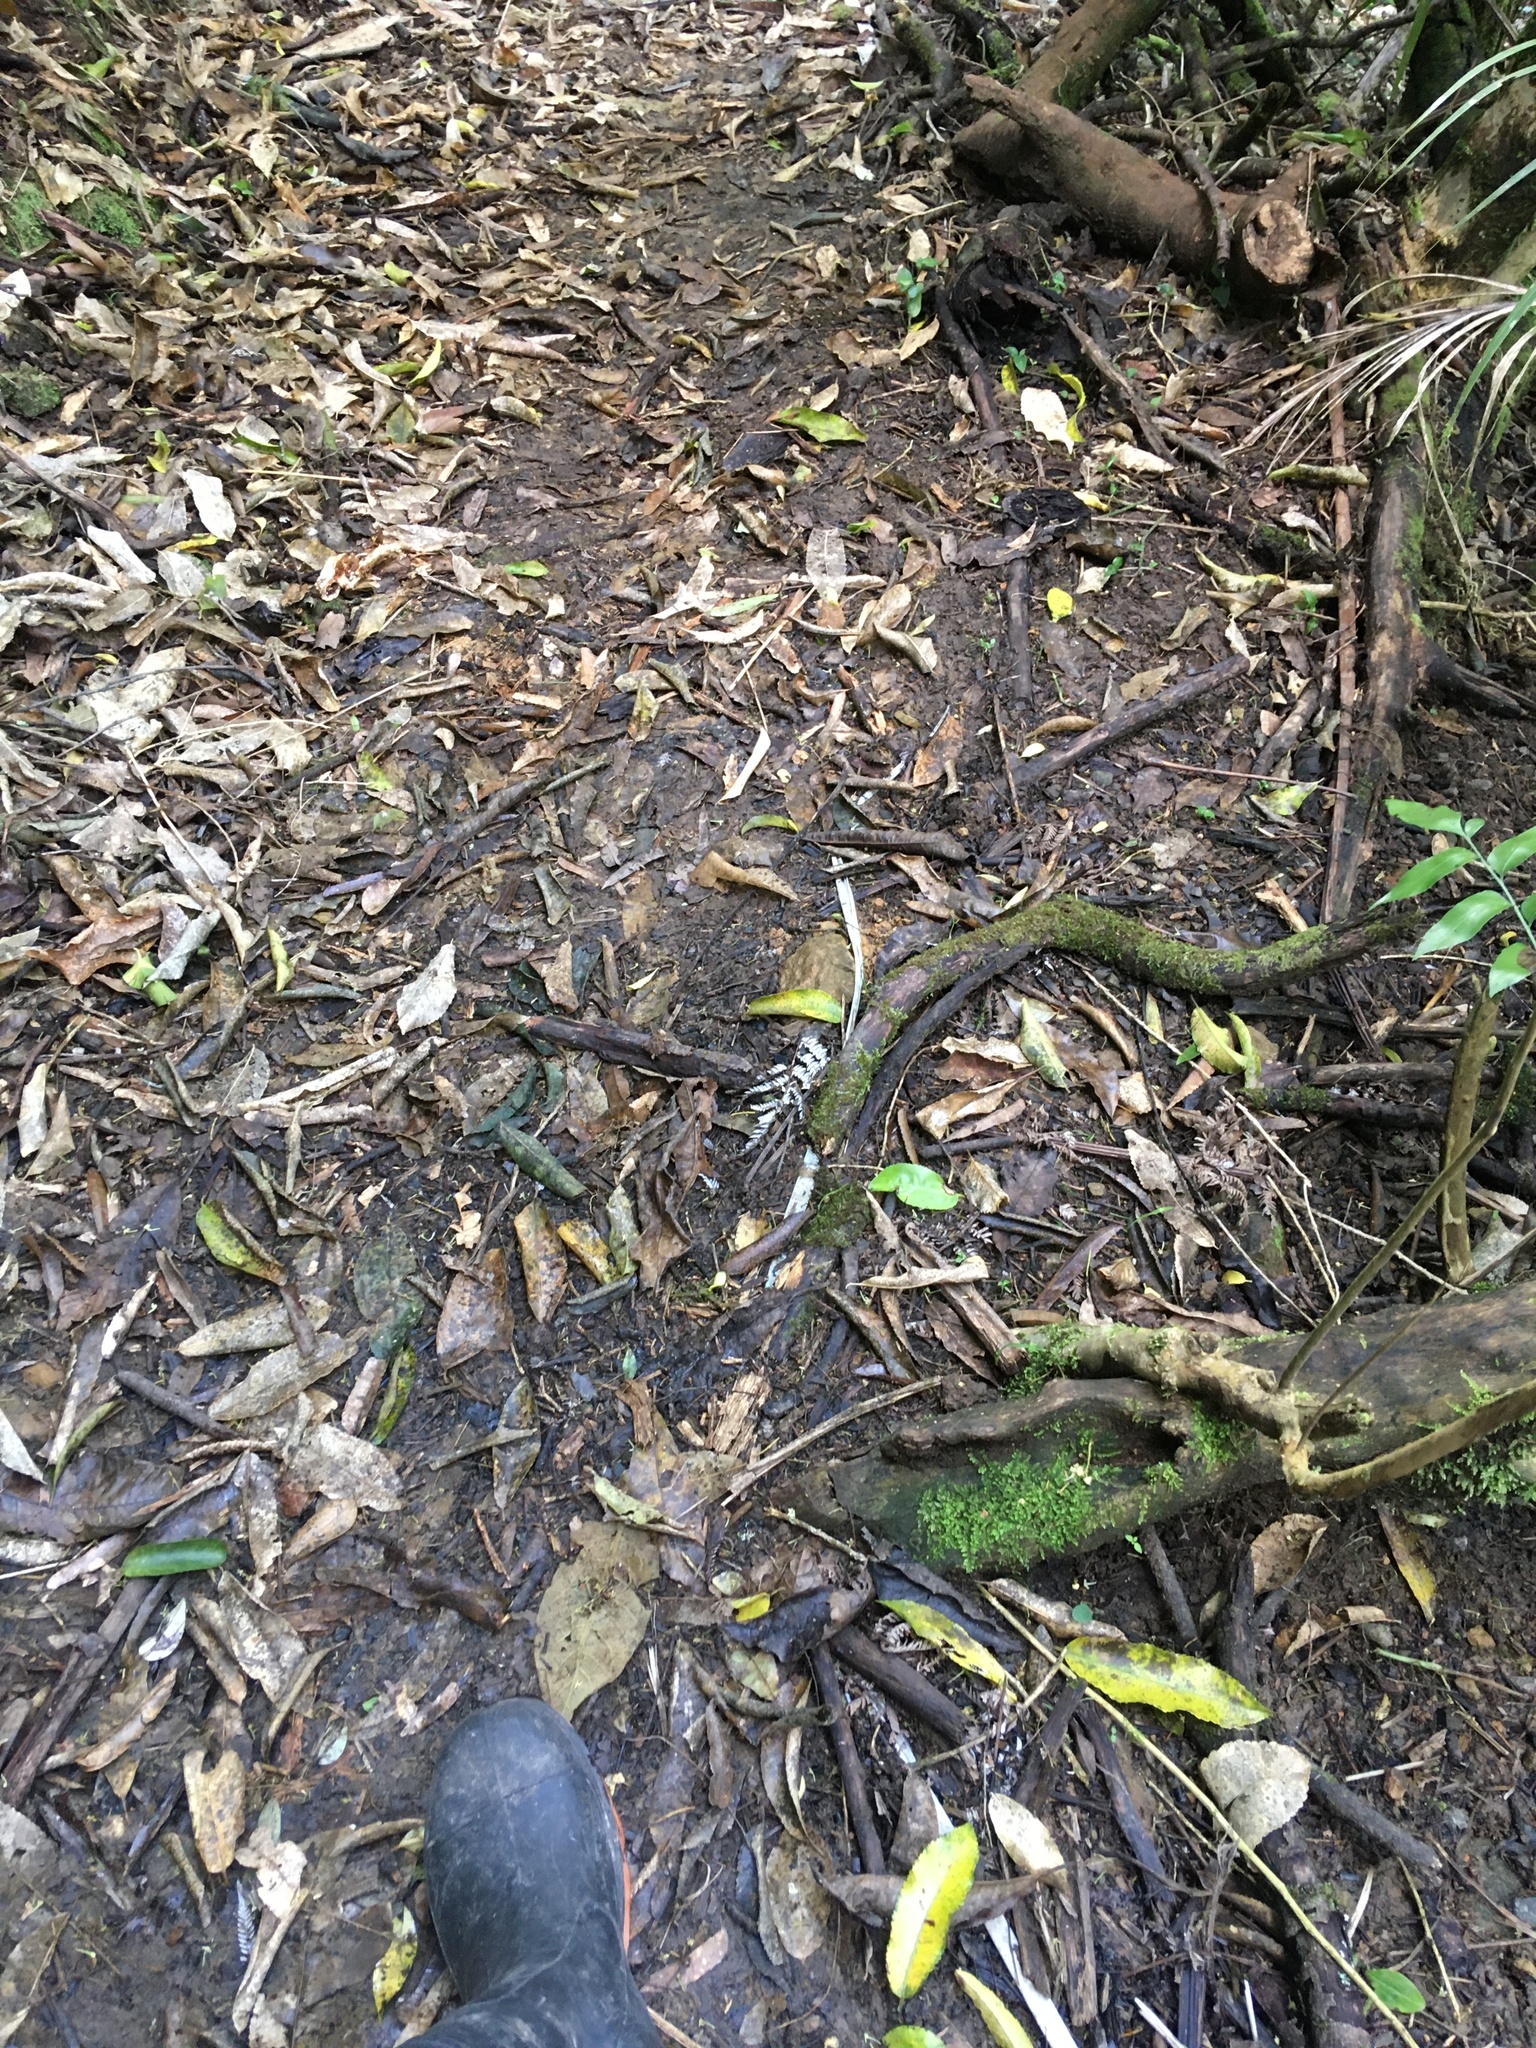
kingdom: Plantae
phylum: Tracheophyta
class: Polypodiopsida
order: Polypodiales
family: Polypodiaceae
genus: Lecanopteris
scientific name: Lecanopteris pustulata
